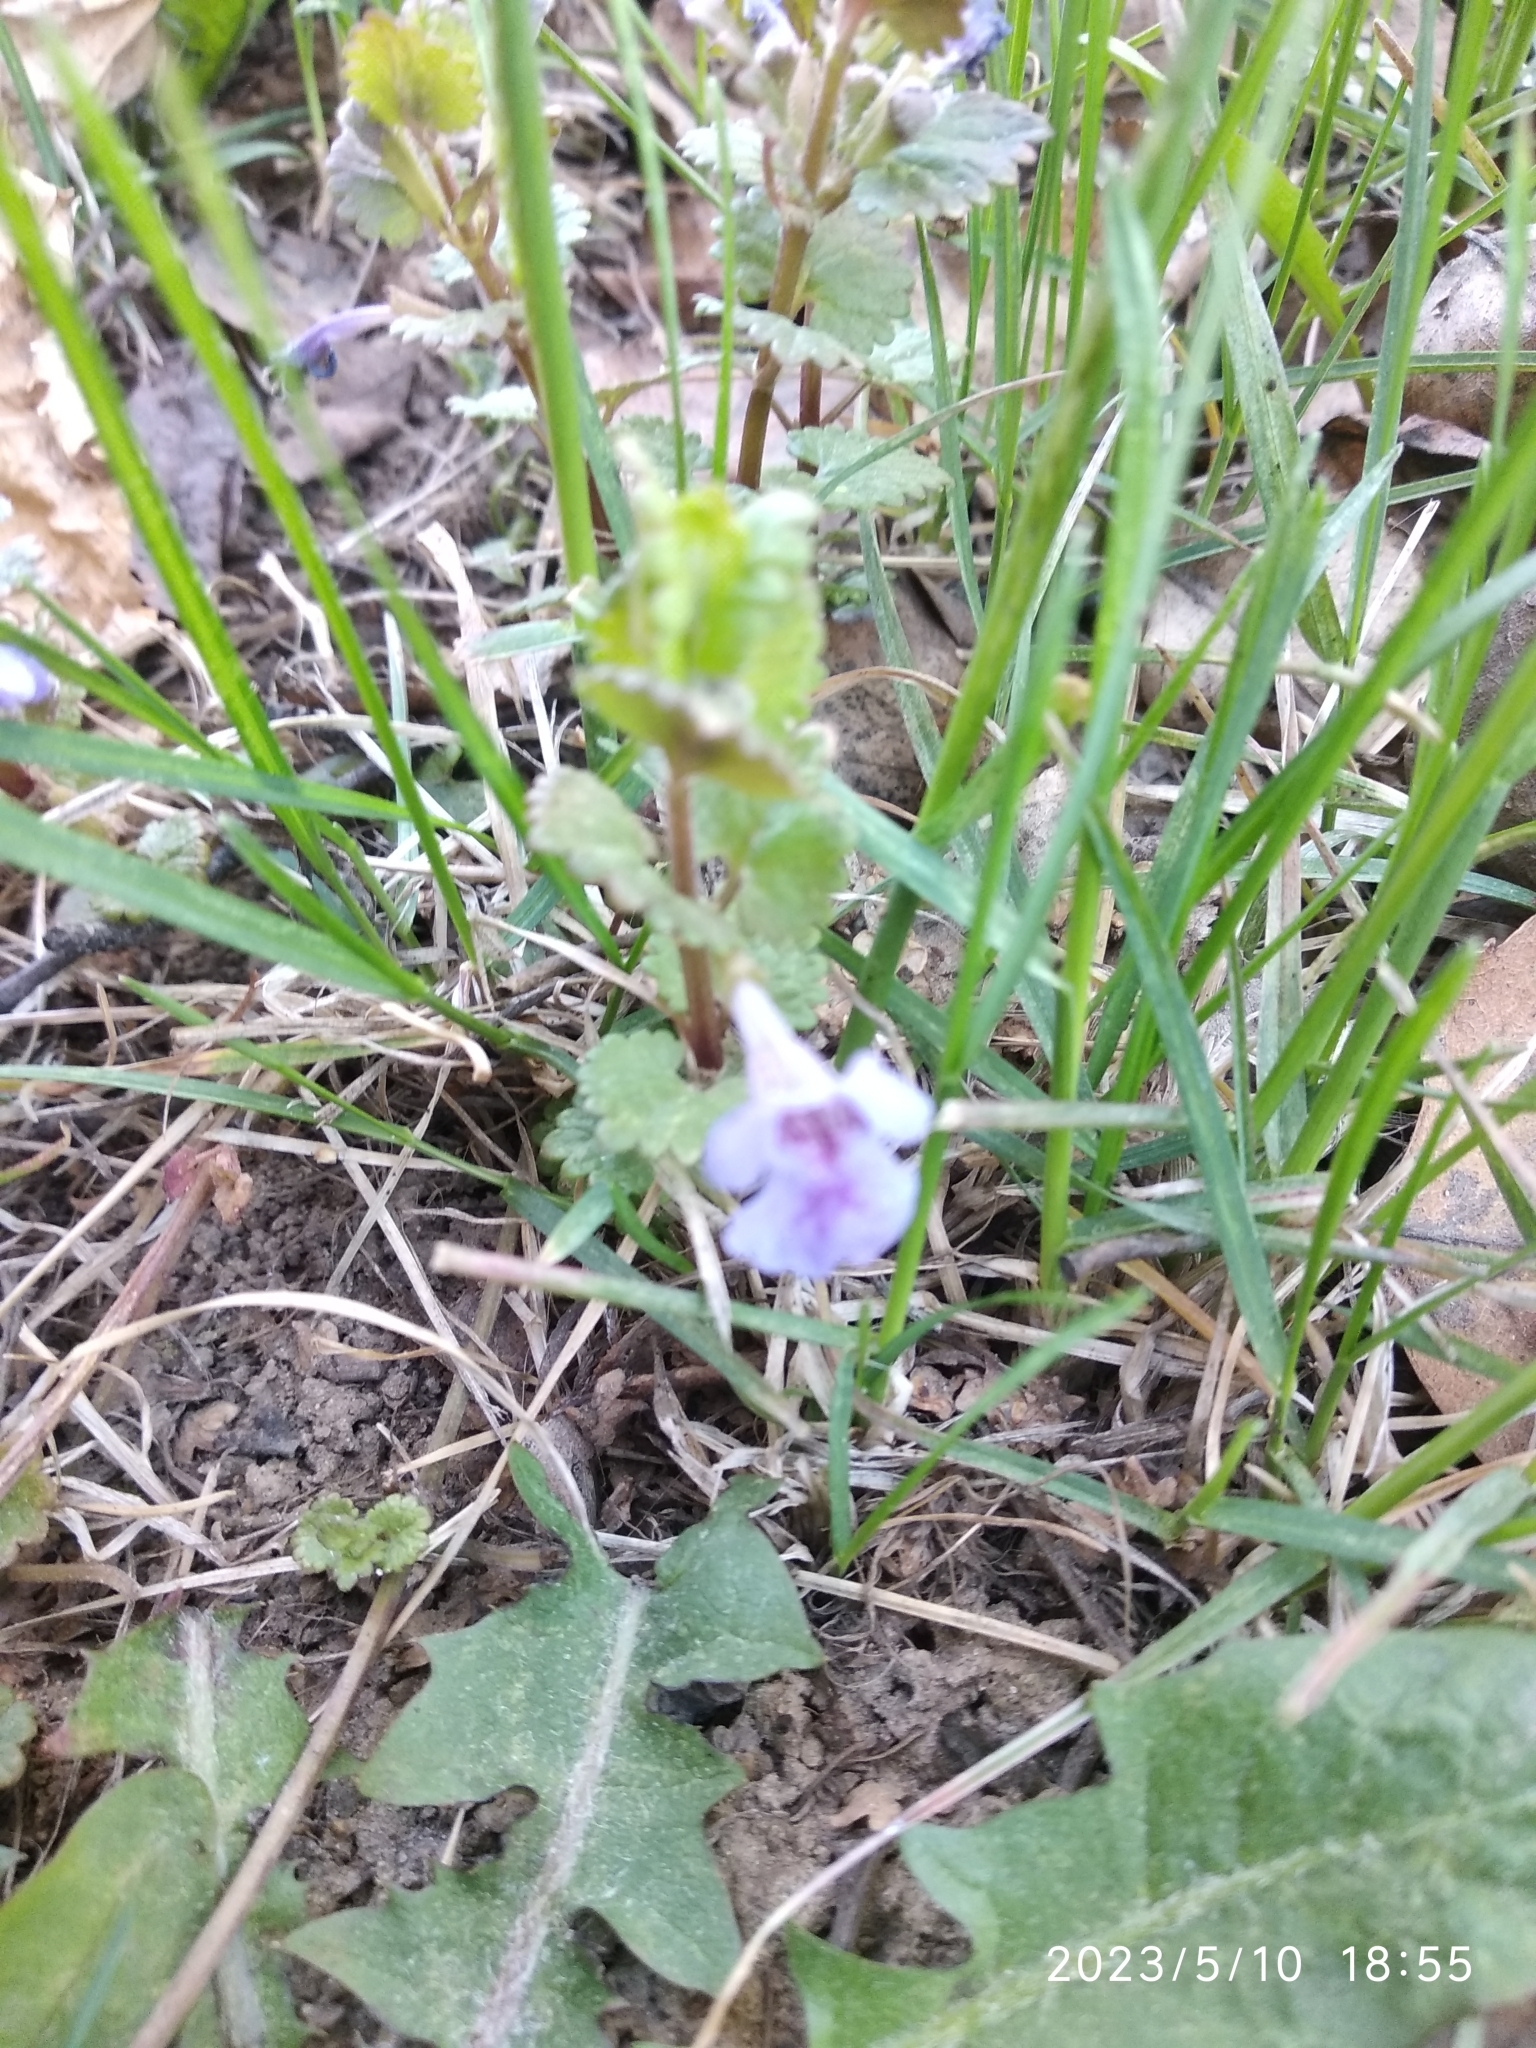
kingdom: Plantae
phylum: Tracheophyta
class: Magnoliopsida
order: Lamiales
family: Lamiaceae
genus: Glechoma
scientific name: Glechoma hederacea
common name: Ground ivy
